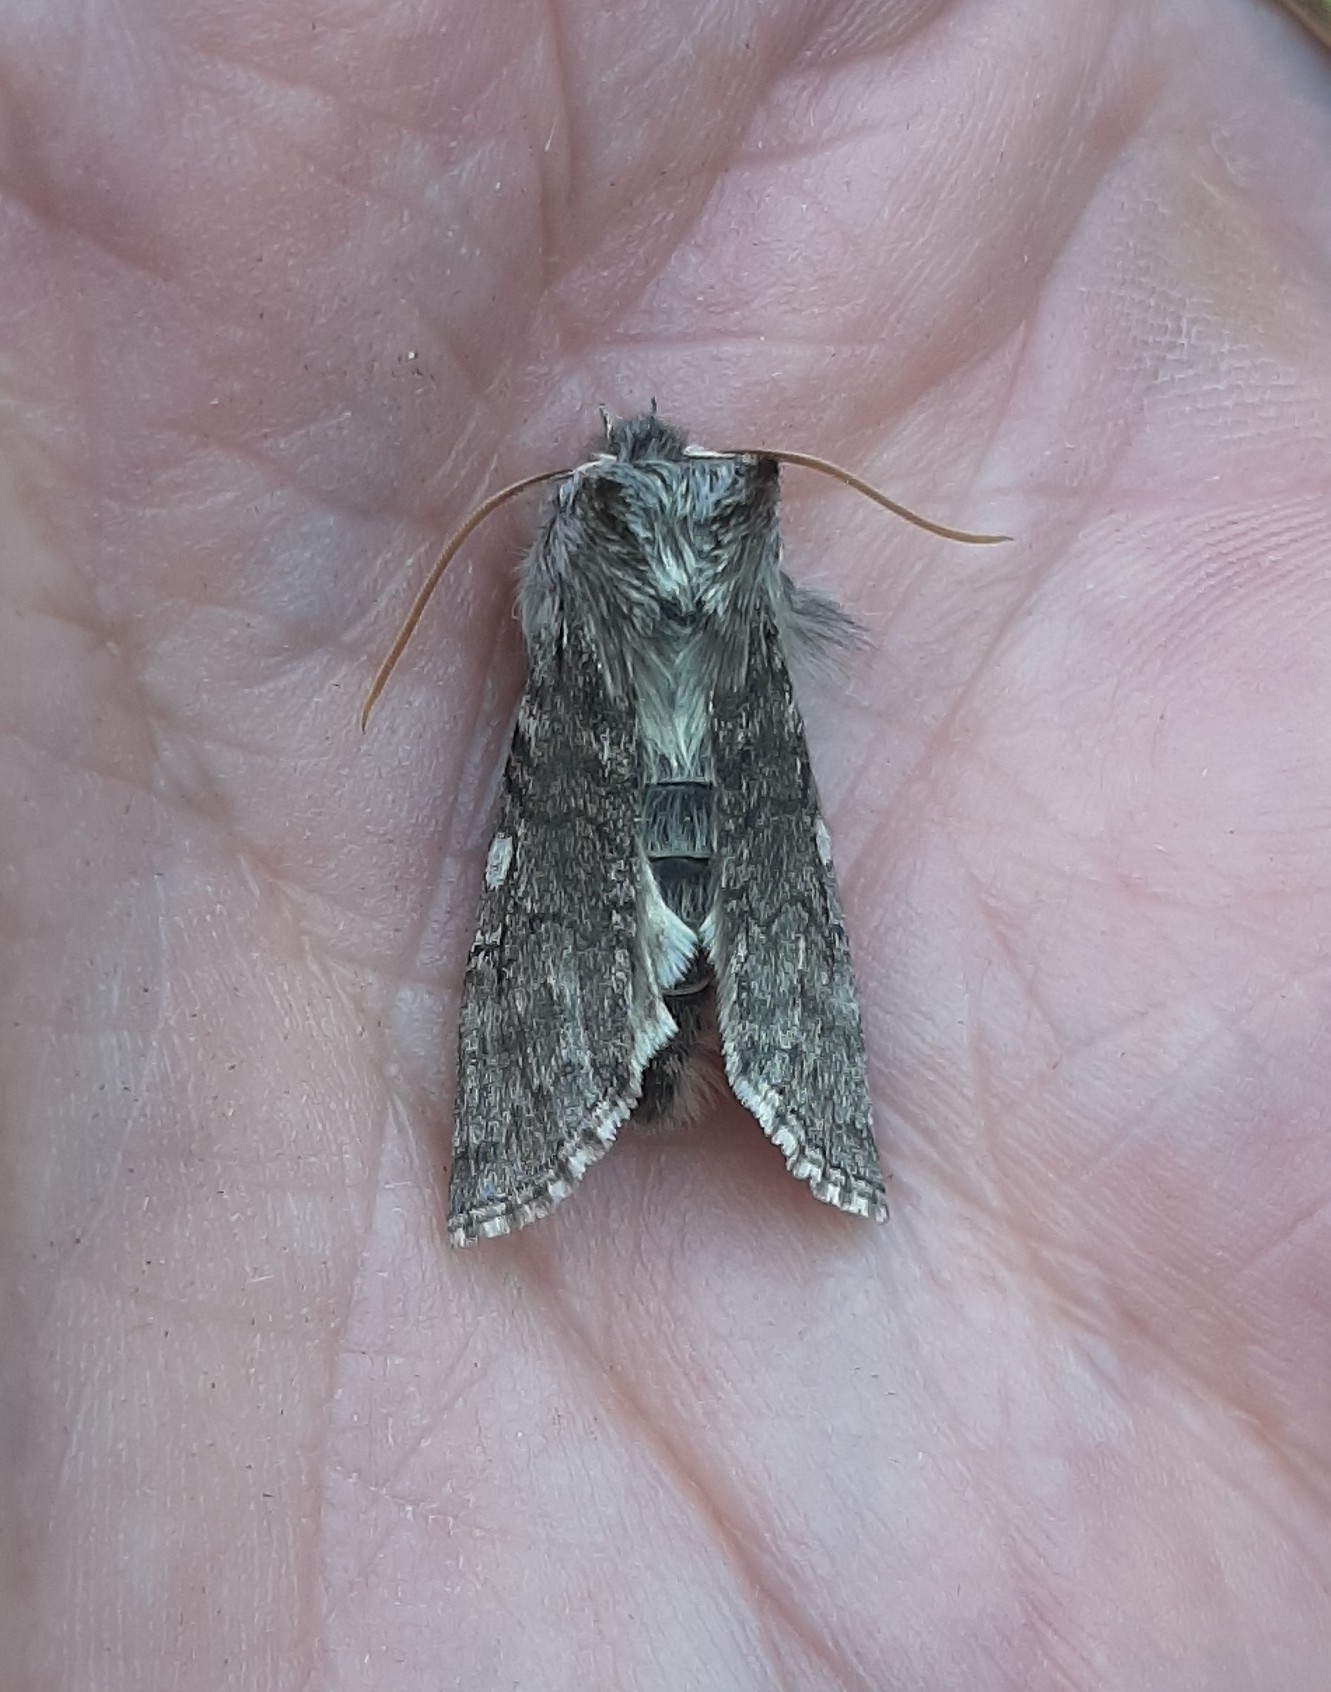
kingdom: Animalia
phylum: Arthropoda
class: Insecta
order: Lepidoptera
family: Drepanidae
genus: Achlya
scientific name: Achlya flavicornis
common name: Yellow horned
